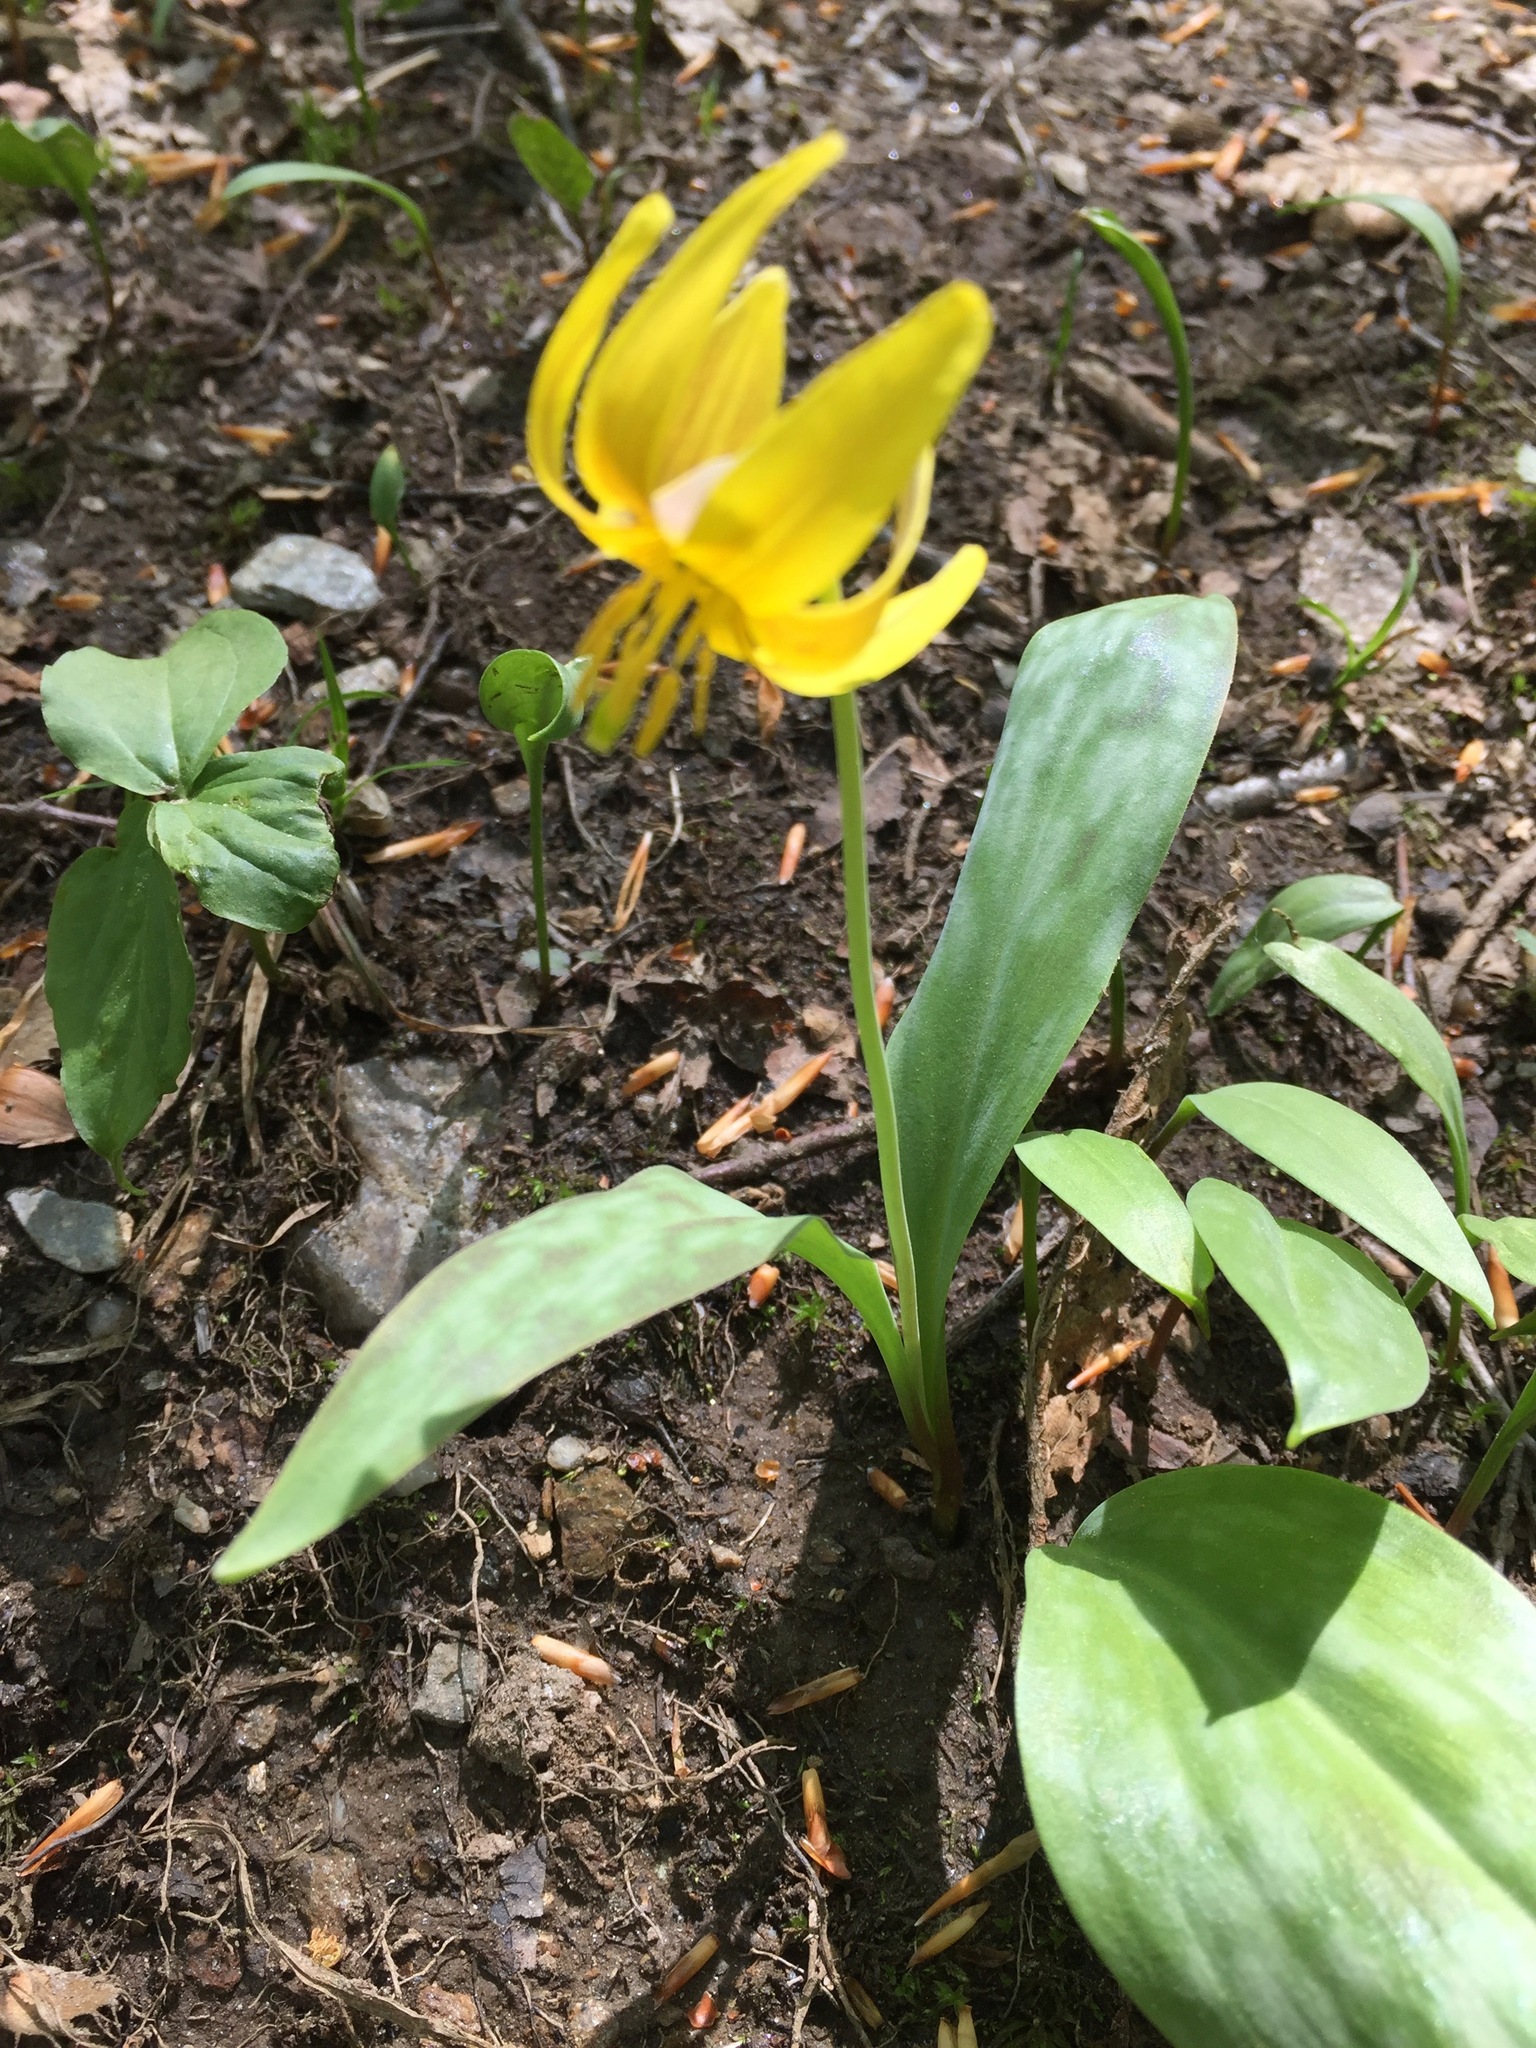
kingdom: Plantae
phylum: Tracheophyta
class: Liliopsida
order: Liliales
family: Liliaceae
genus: Erythronium
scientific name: Erythronium americanum
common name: Yellow adder's-tongue
